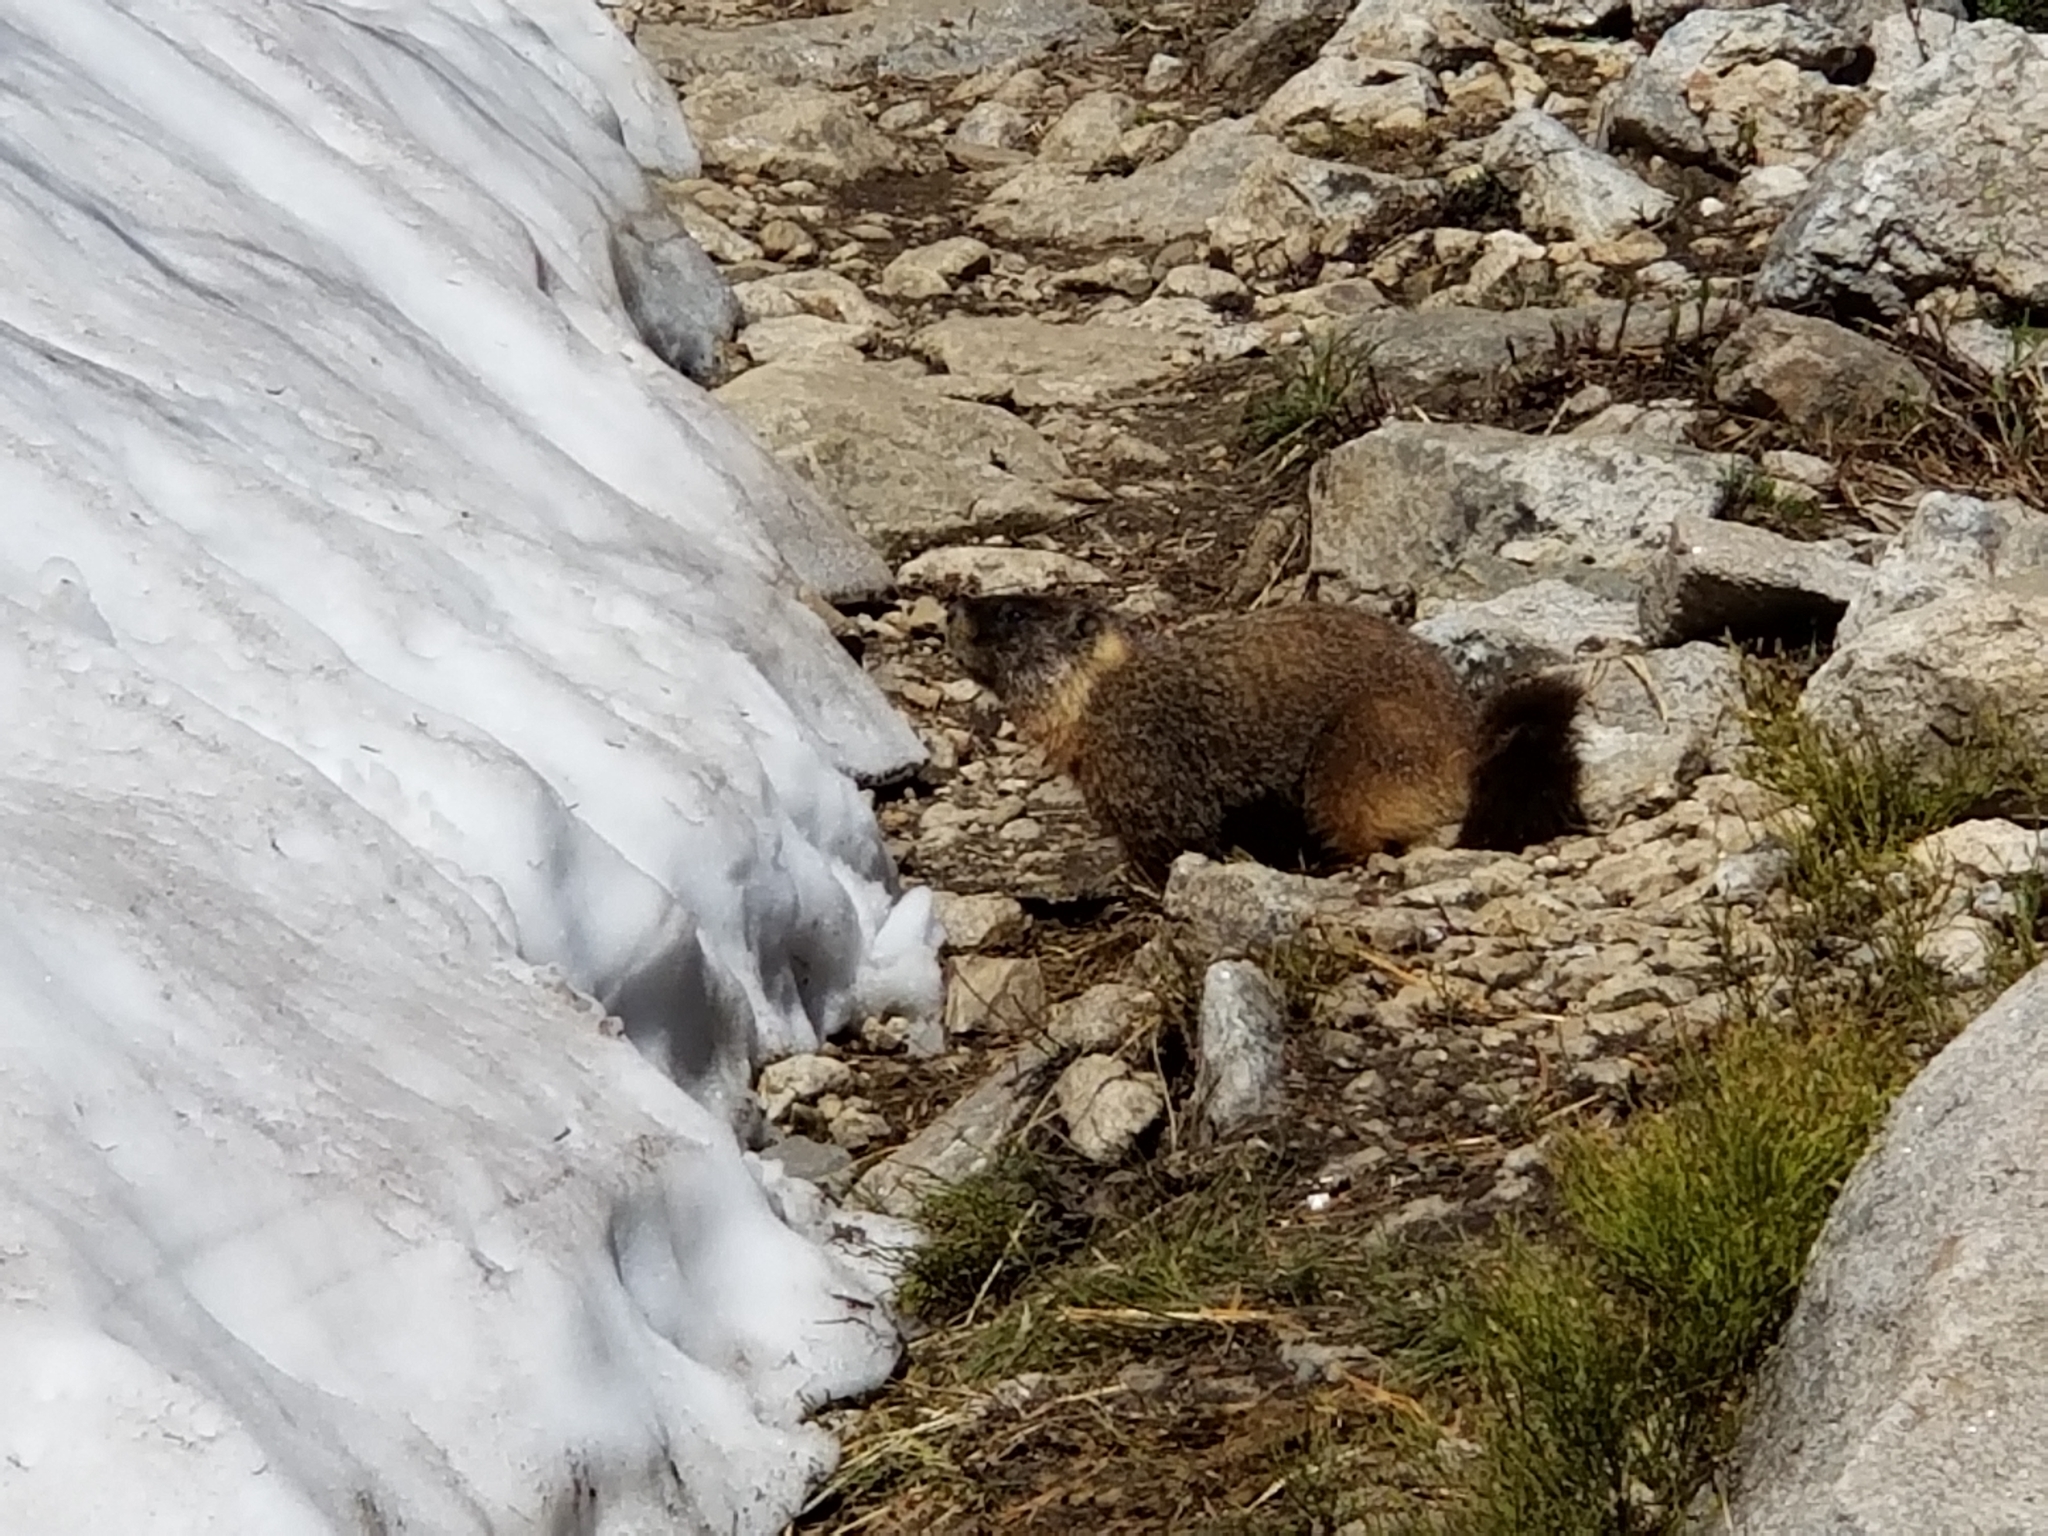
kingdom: Animalia
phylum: Chordata
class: Mammalia
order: Rodentia
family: Sciuridae
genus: Marmota
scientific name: Marmota flaviventris
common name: Yellow-bellied marmot
